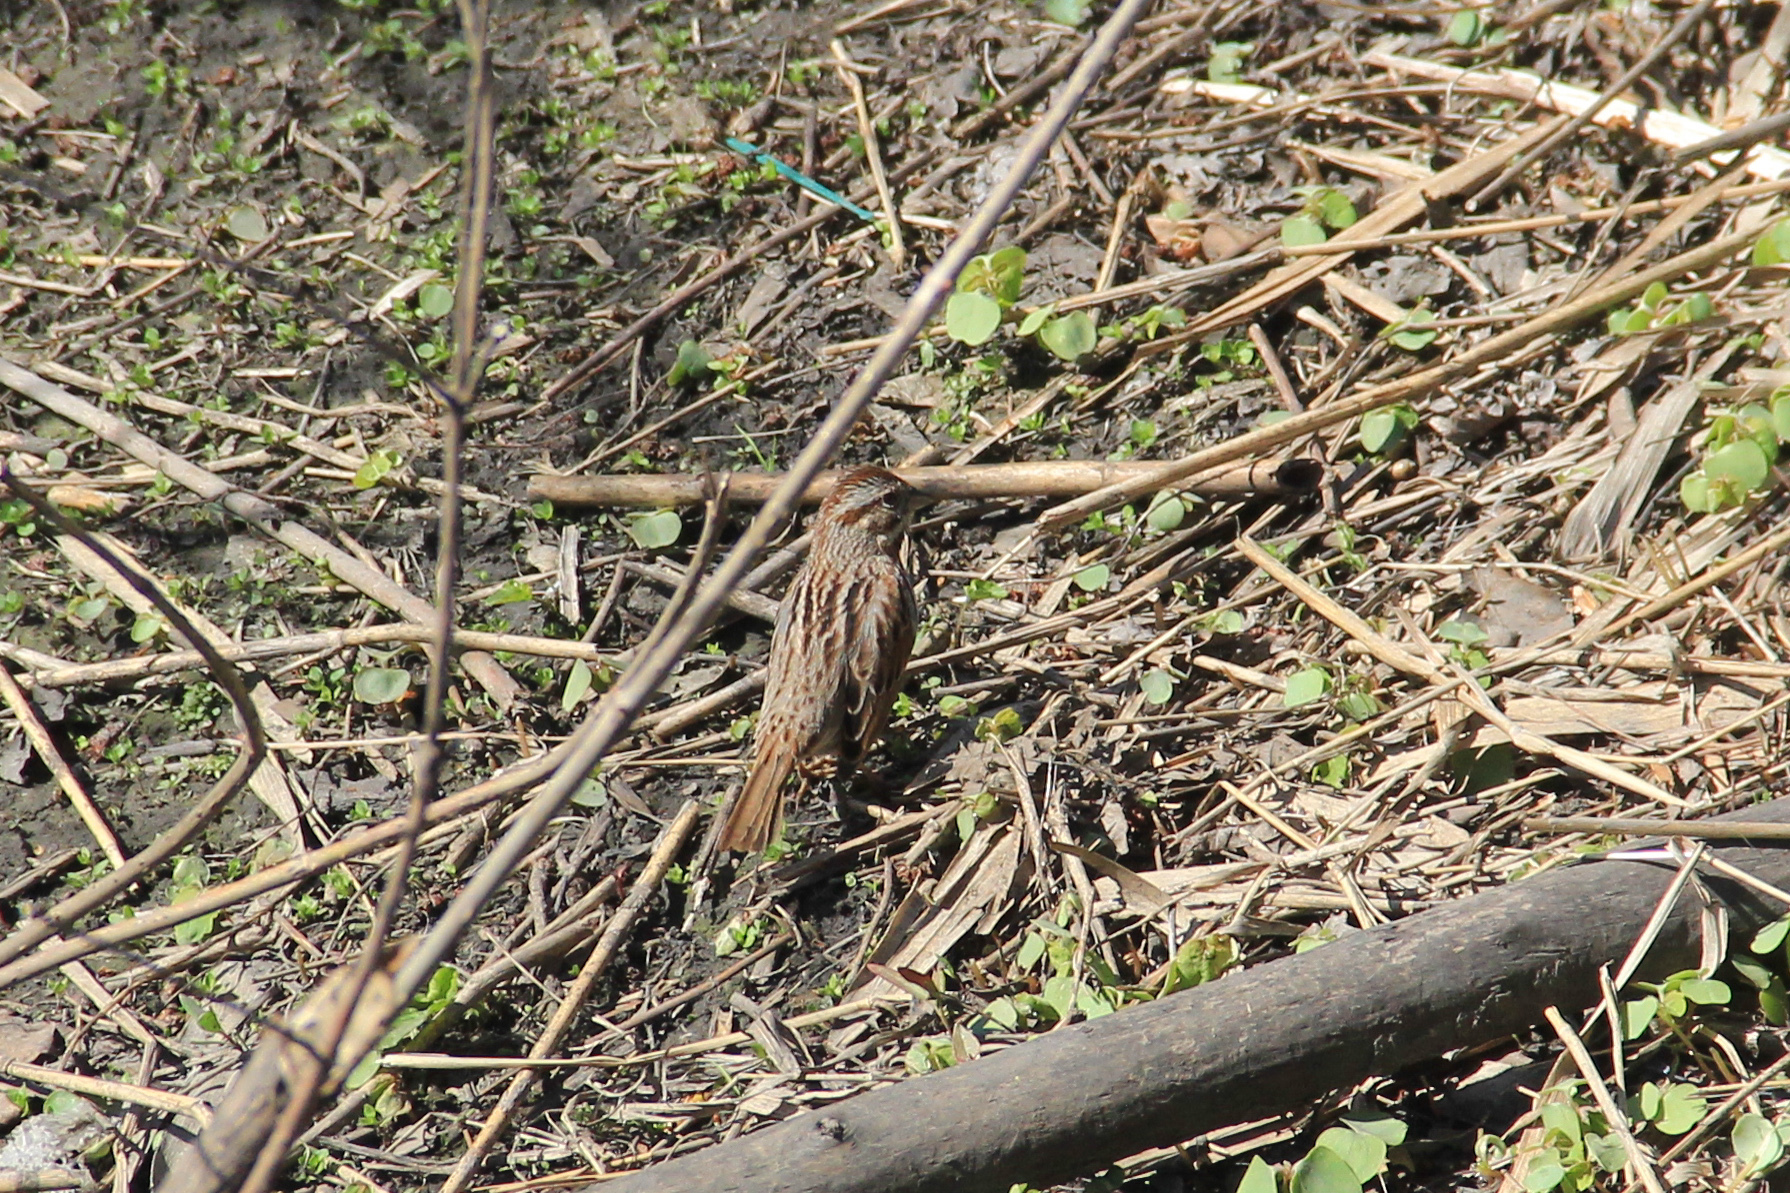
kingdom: Animalia
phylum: Chordata
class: Aves
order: Passeriformes
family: Passerellidae
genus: Melospiza
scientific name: Melospiza melodia
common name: Song sparrow
